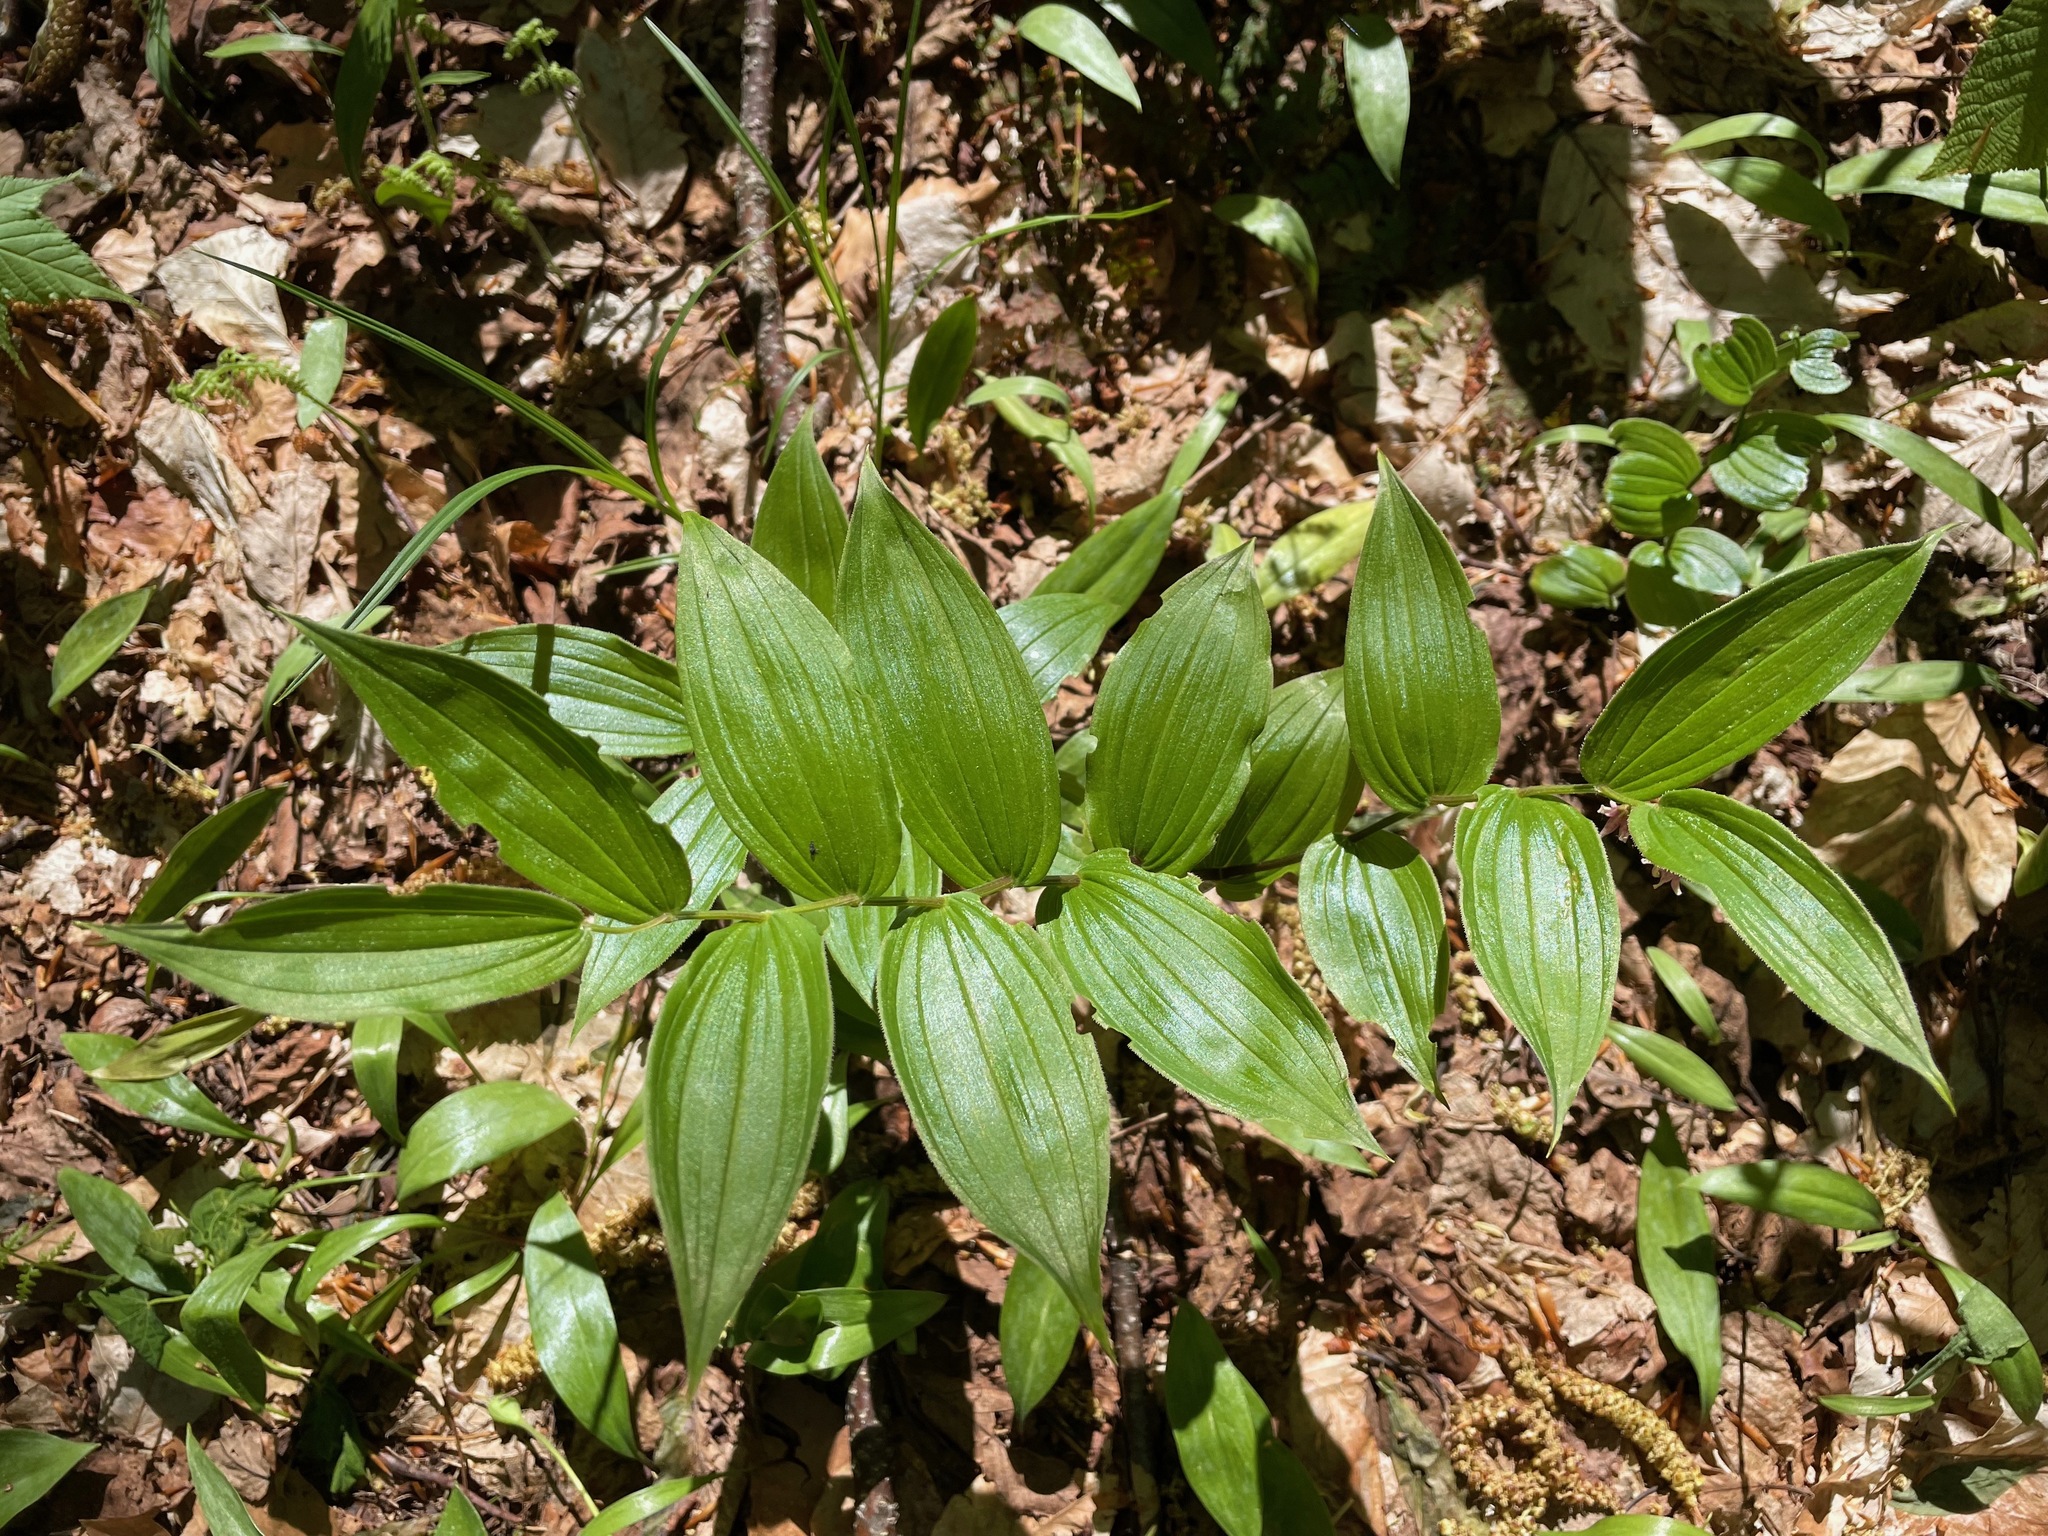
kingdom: Plantae
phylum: Tracheophyta
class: Liliopsida
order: Liliales
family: Liliaceae
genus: Streptopus
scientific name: Streptopus lanceolatus
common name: Rose mandarin
